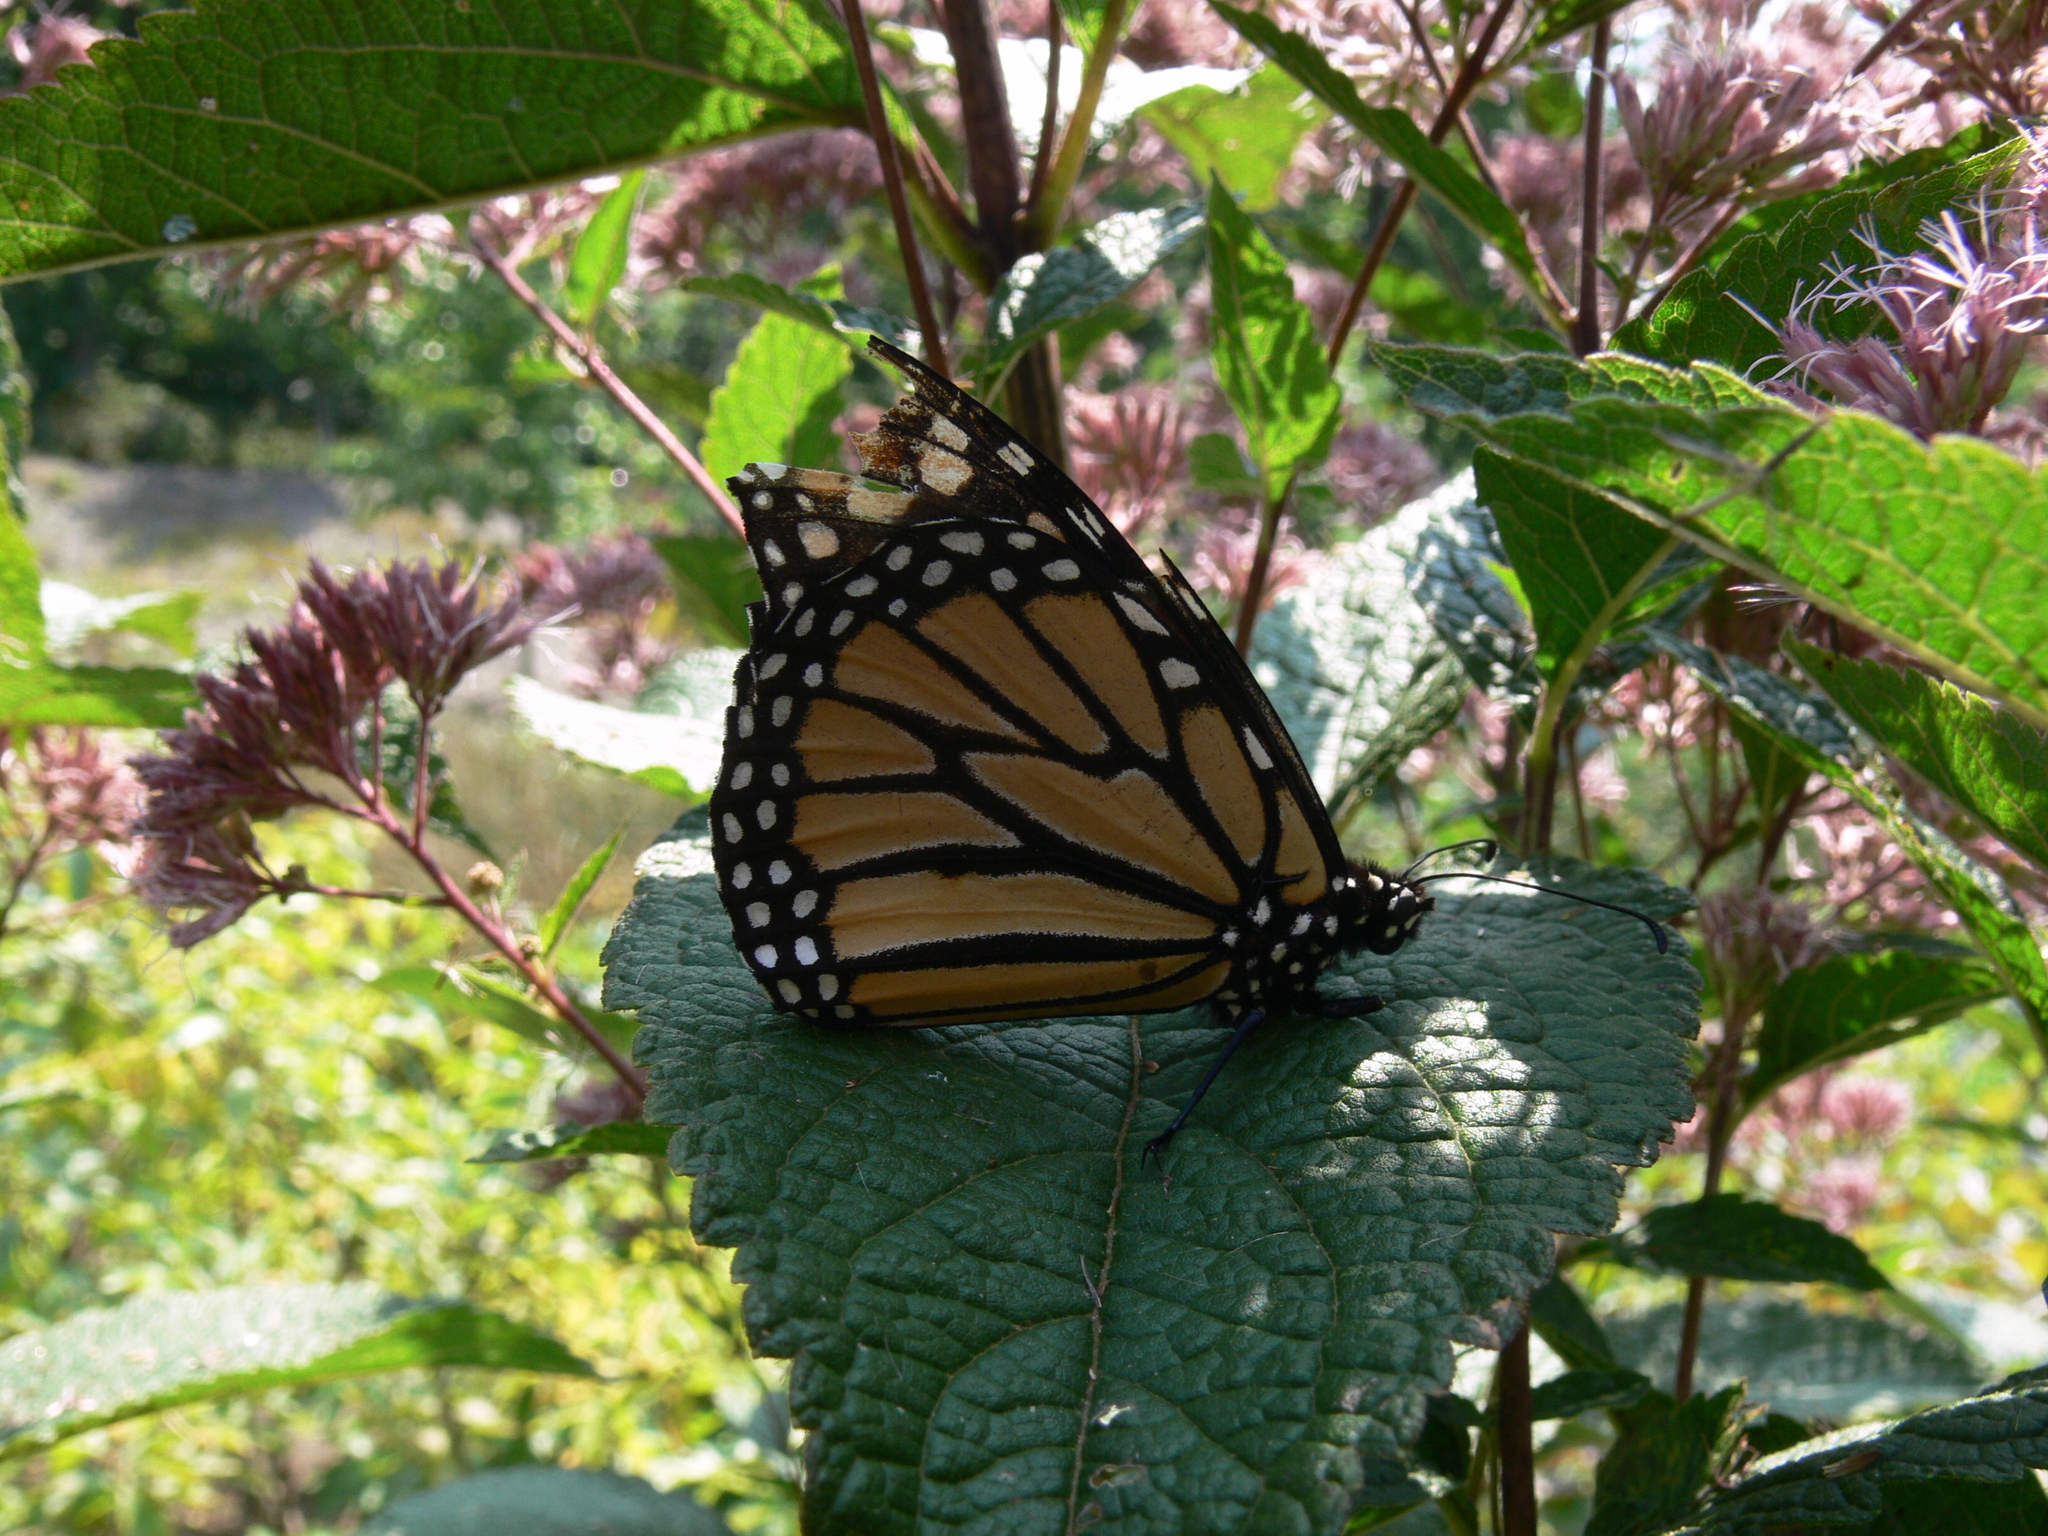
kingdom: Animalia
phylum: Arthropoda
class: Insecta
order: Lepidoptera
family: Nymphalidae
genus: Danaus
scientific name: Danaus plexippus
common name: Monarch
